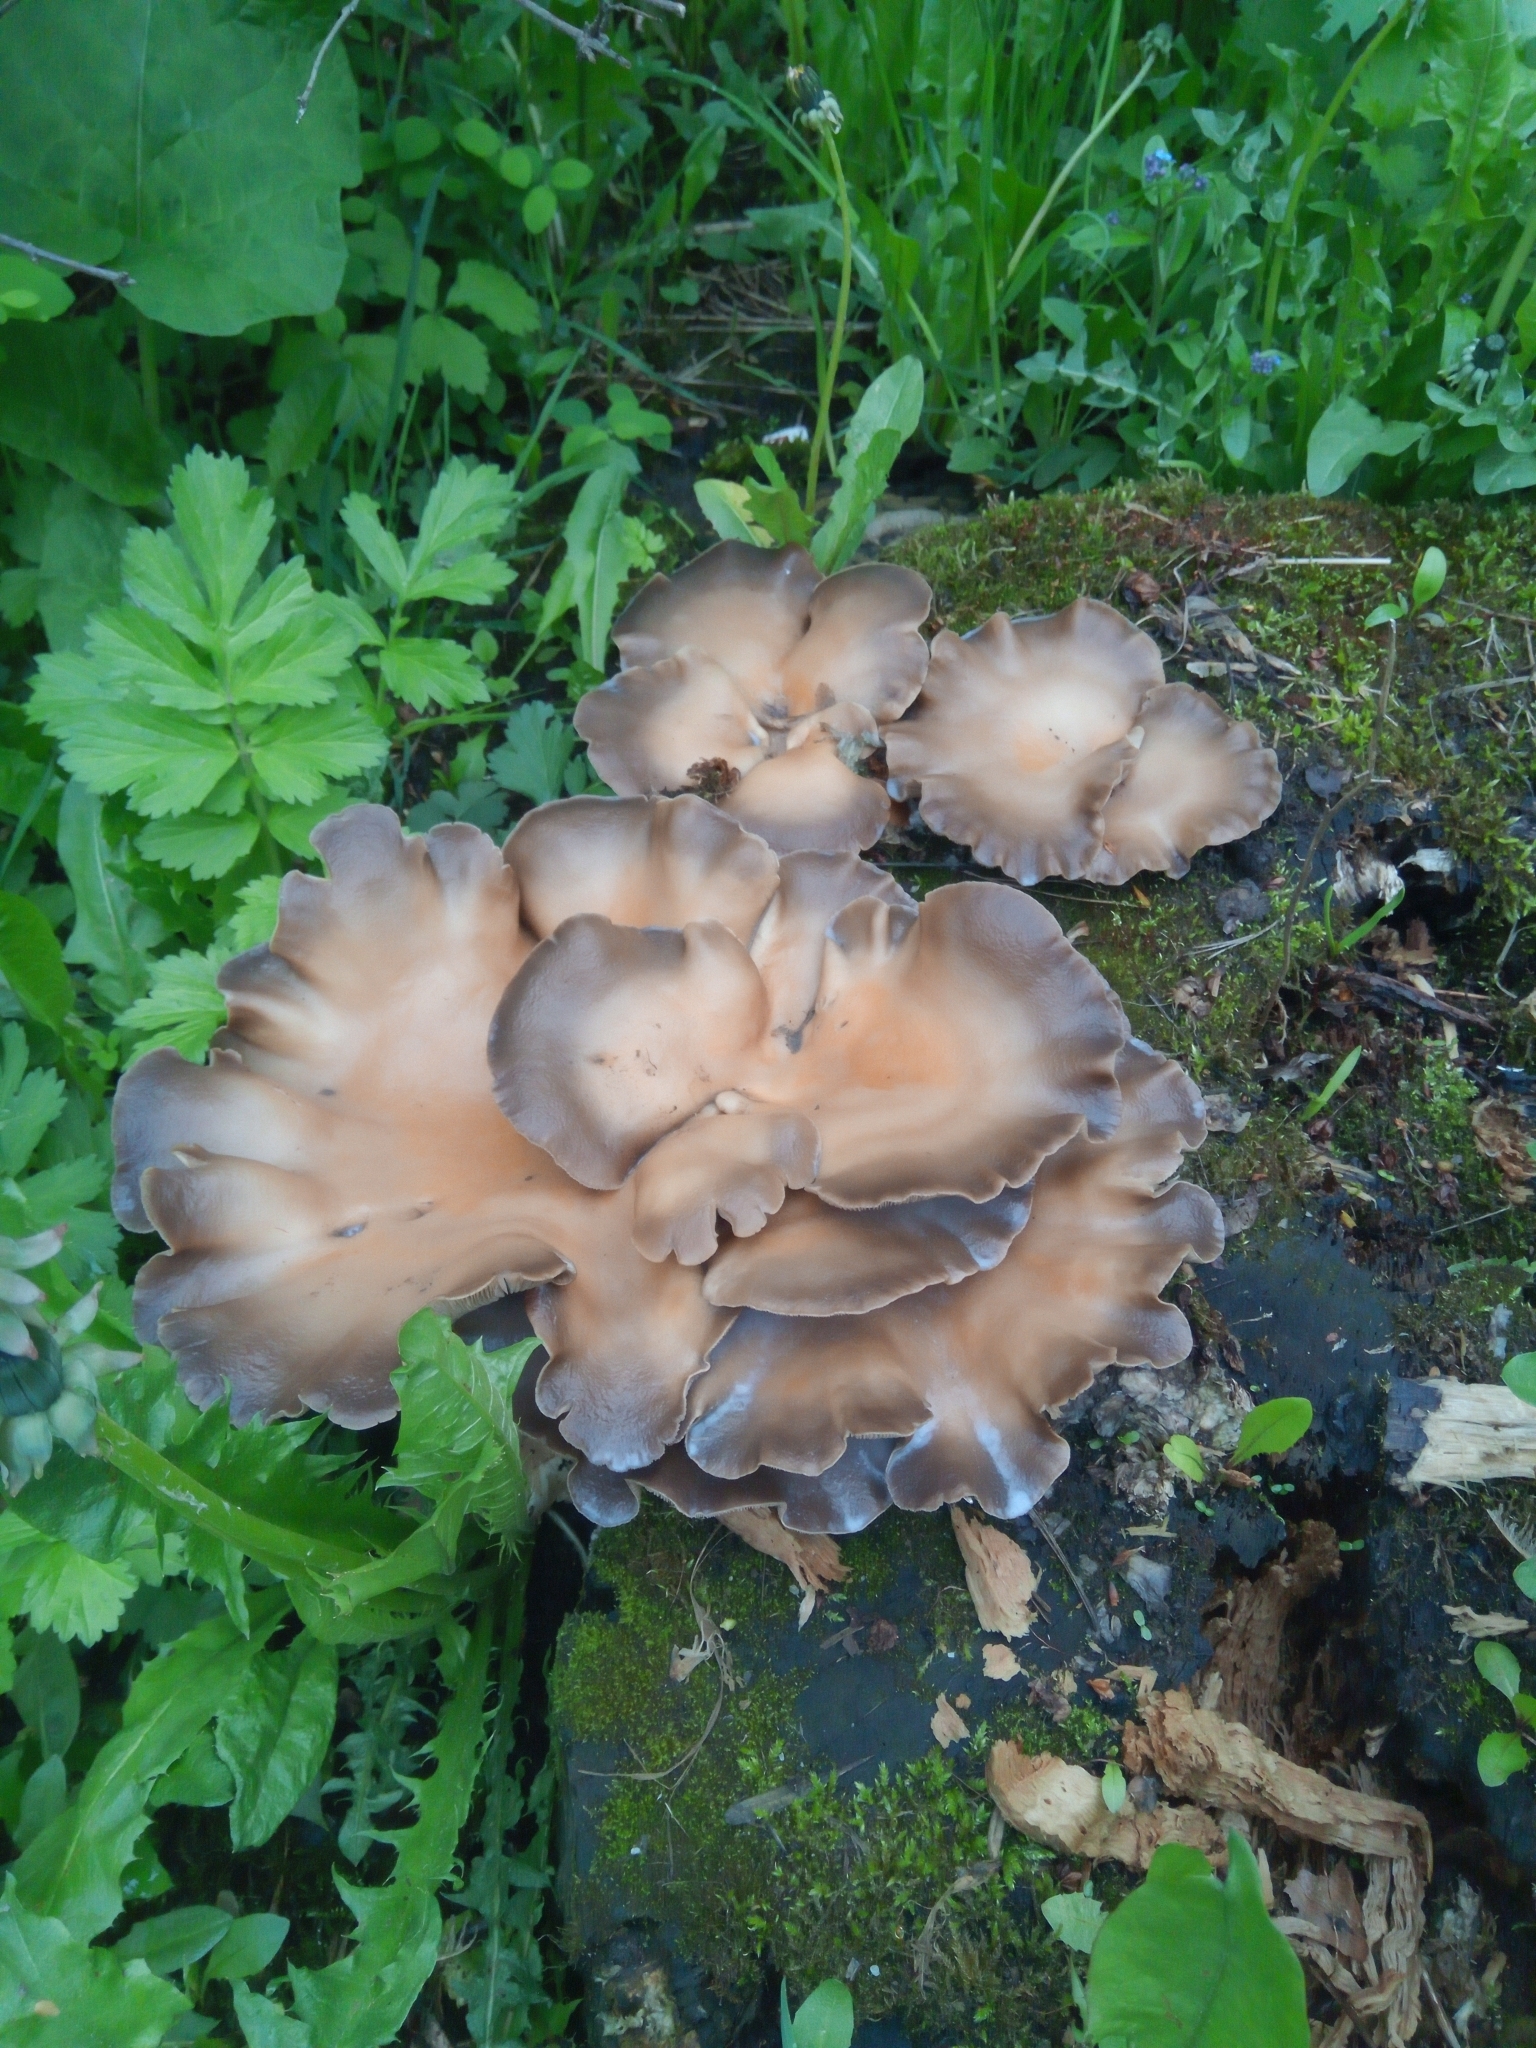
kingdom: Fungi
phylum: Basidiomycota
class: Agaricomycetes
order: Agaricales
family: Pleurotaceae
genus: Pleurotus
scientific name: Pleurotus ostreatus
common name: Oyster mushroom
